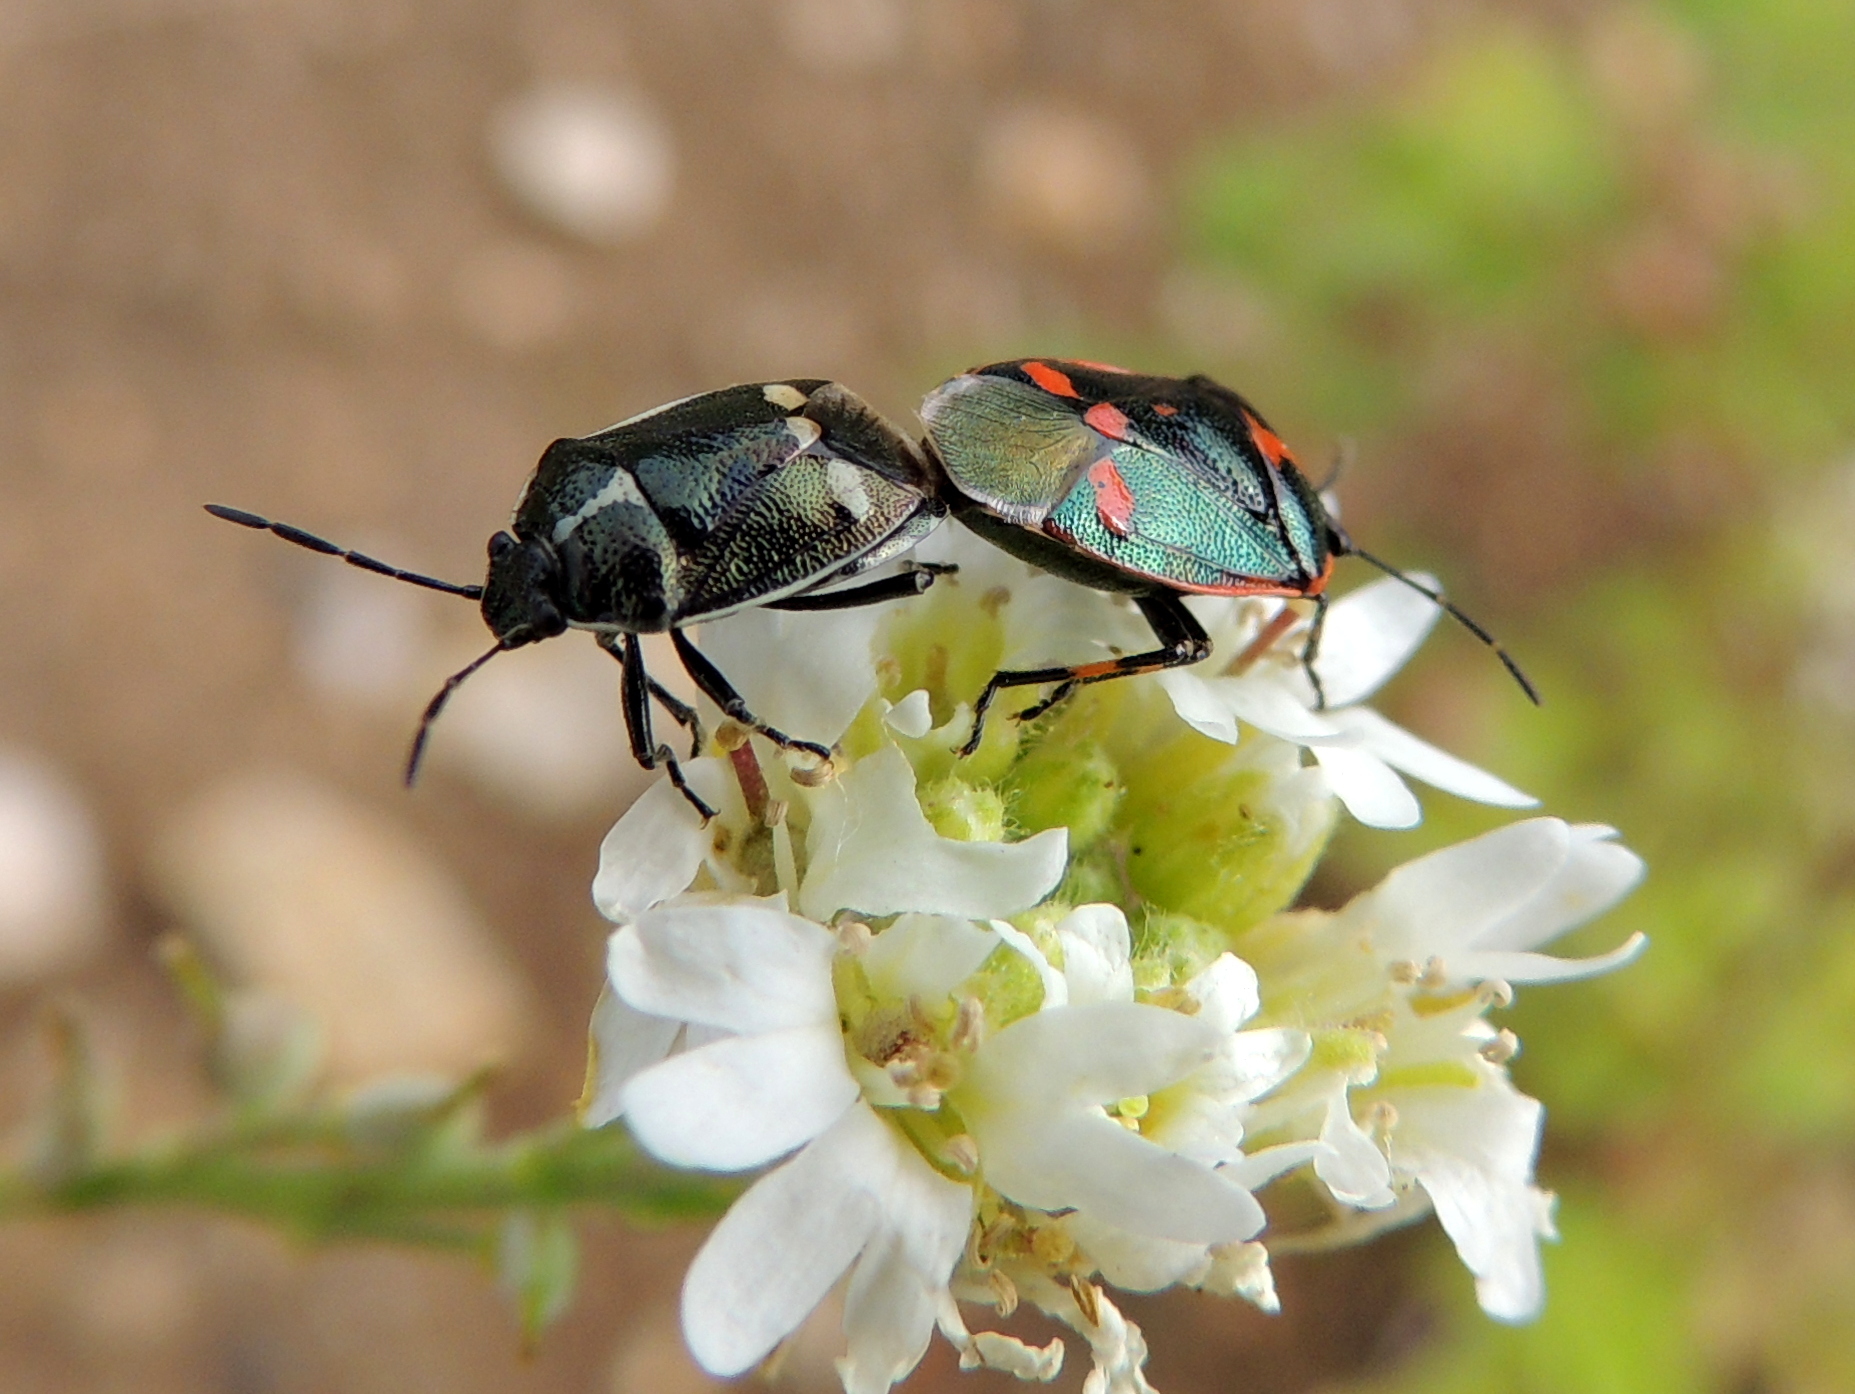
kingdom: Animalia
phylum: Arthropoda
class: Insecta
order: Hemiptera
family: Pentatomidae
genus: Eurydema
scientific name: Eurydema oleracea
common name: Cabbage bug
